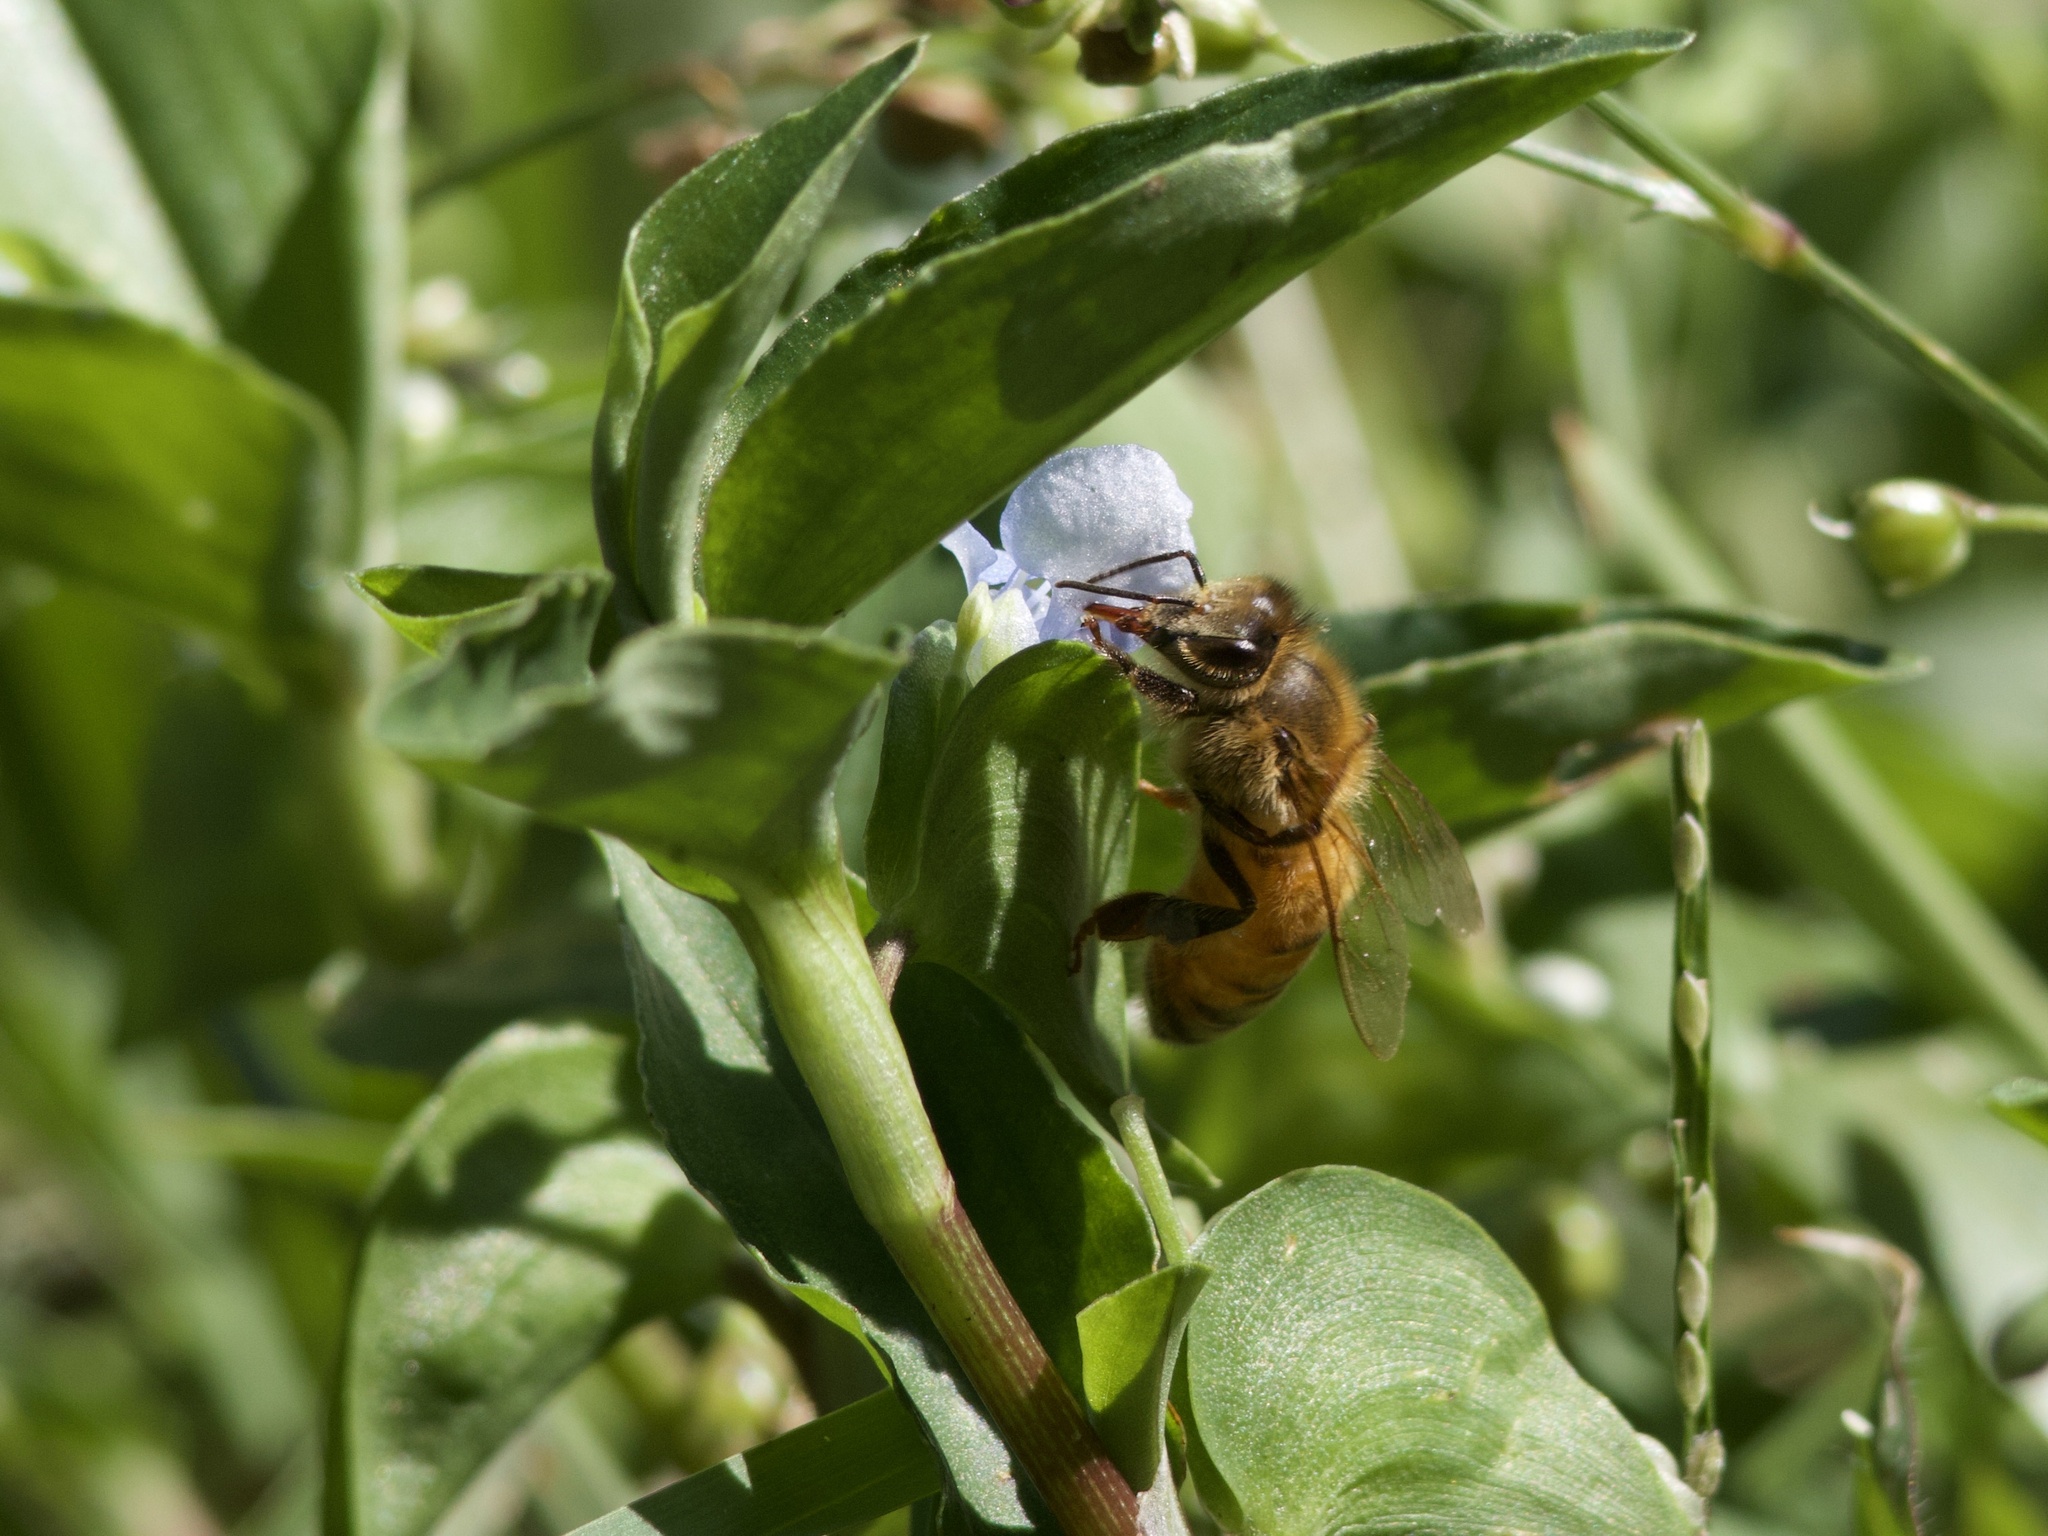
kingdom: Animalia
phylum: Arthropoda
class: Insecta
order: Hymenoptera
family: Apidae
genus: Apis
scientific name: Apis mellifera
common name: Honey bee
